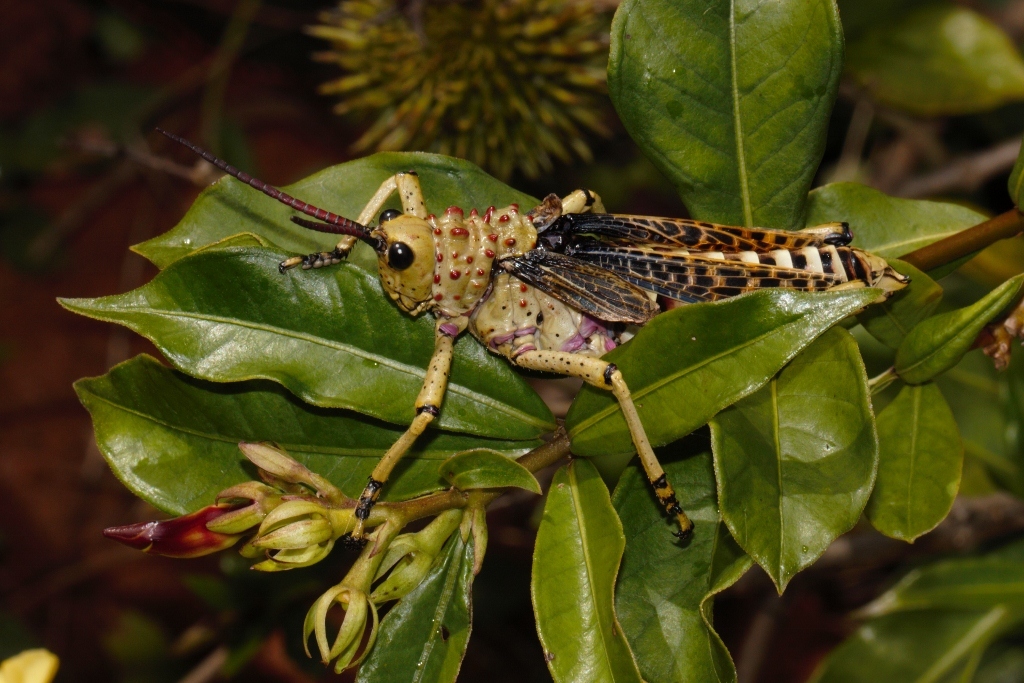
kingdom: Animalia
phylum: Arthropoda
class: Insecta
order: Orthoptera
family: Pyrgomorphidae
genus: Phymateus
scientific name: Phymateus baccatus
